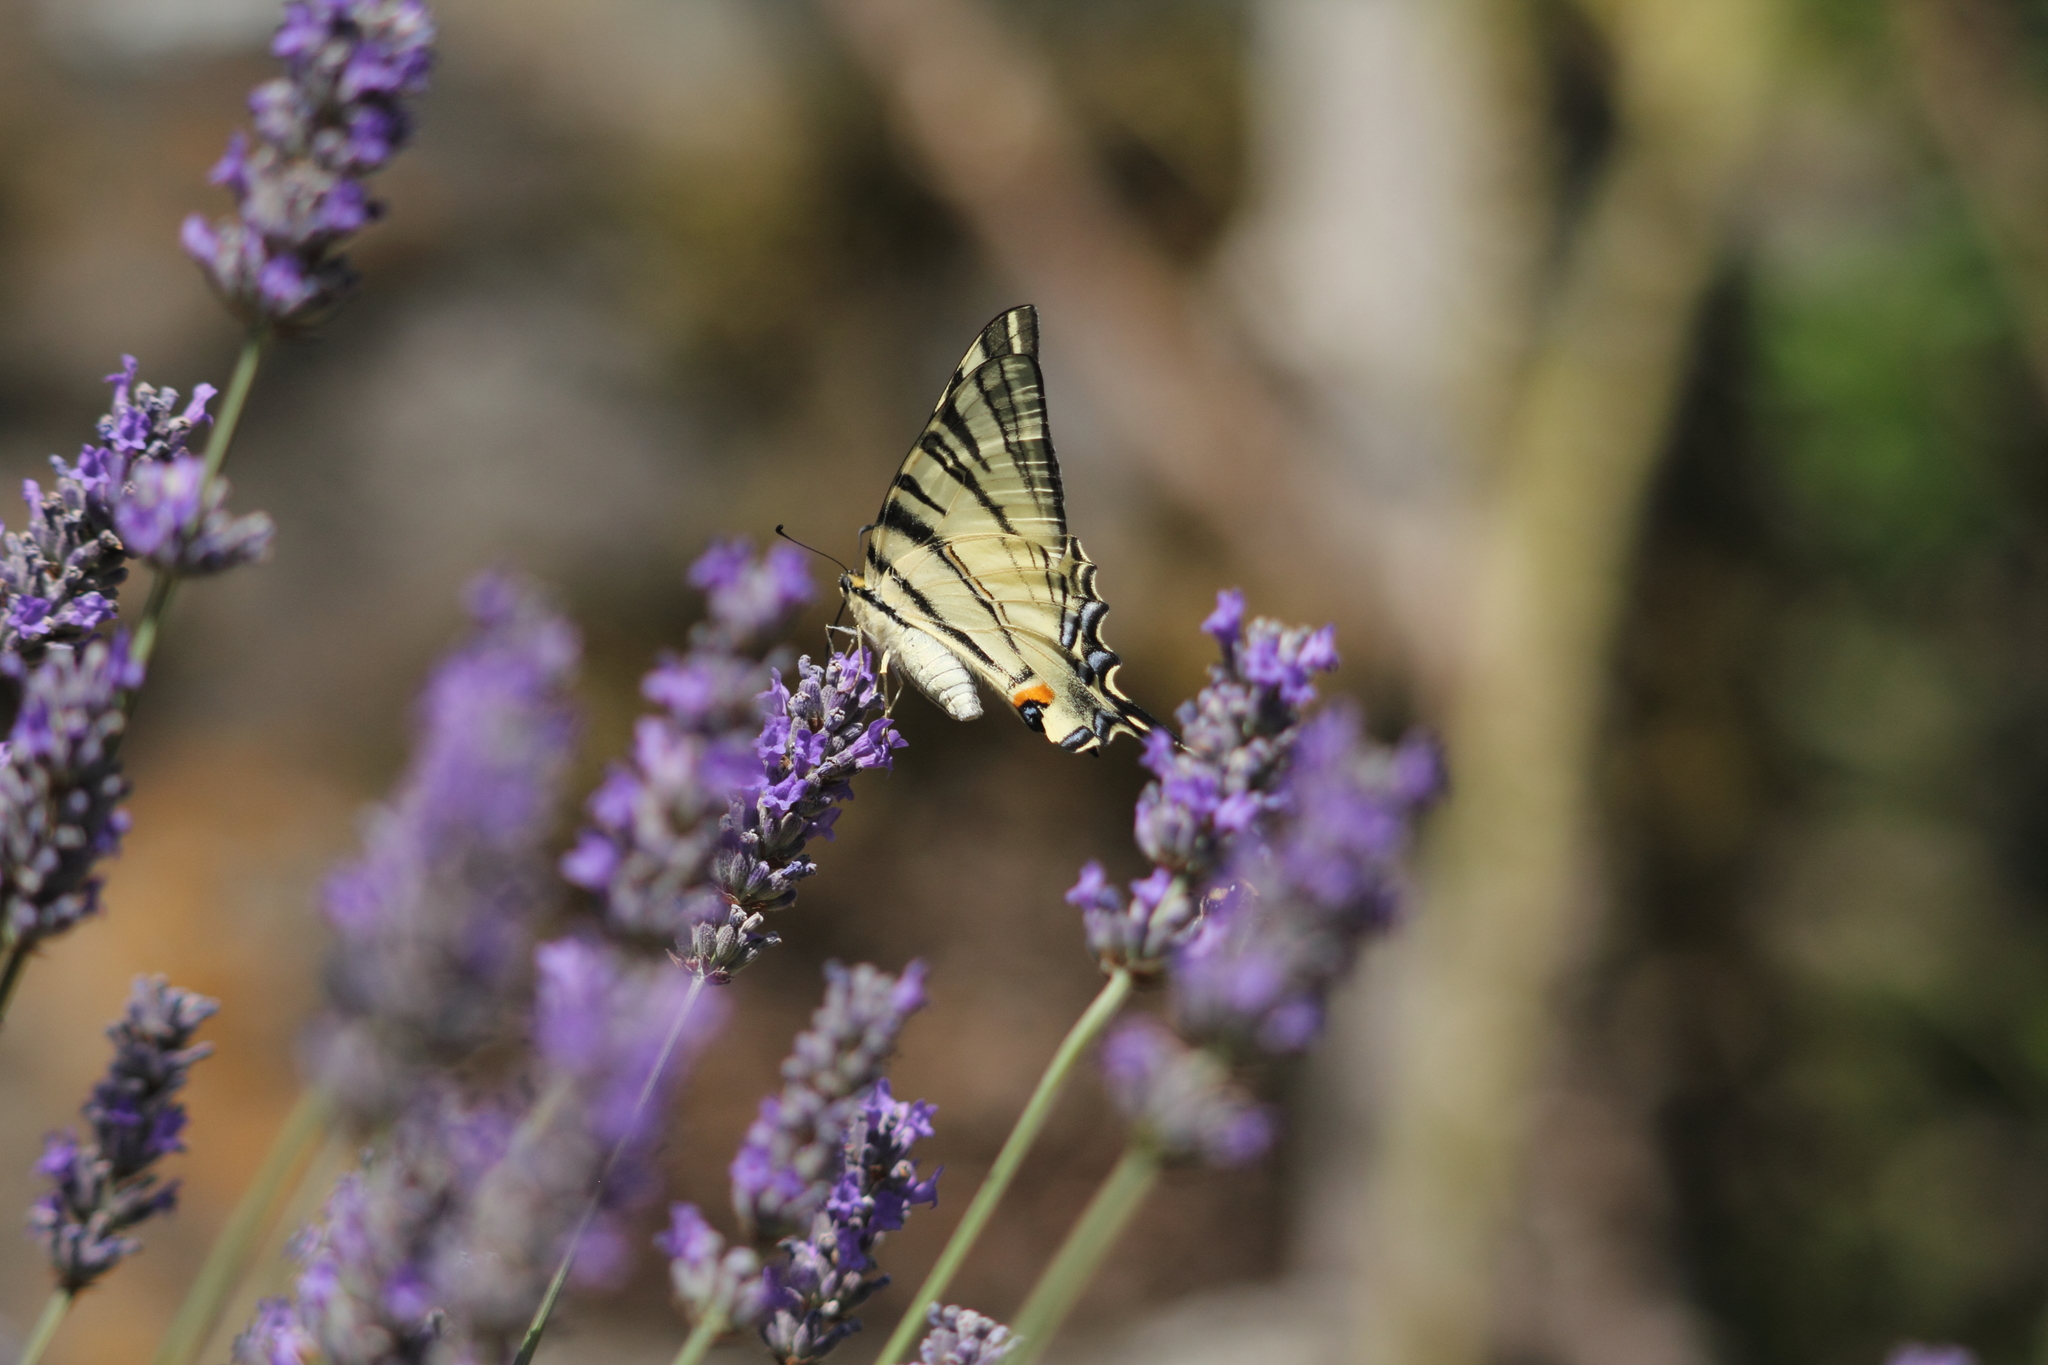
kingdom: Animalia
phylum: Arthropoda
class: Insecta
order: Lepidoptera
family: Papilionidae
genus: Iphiclides
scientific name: Iphiclides podalirius
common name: Scarce swallowtail
